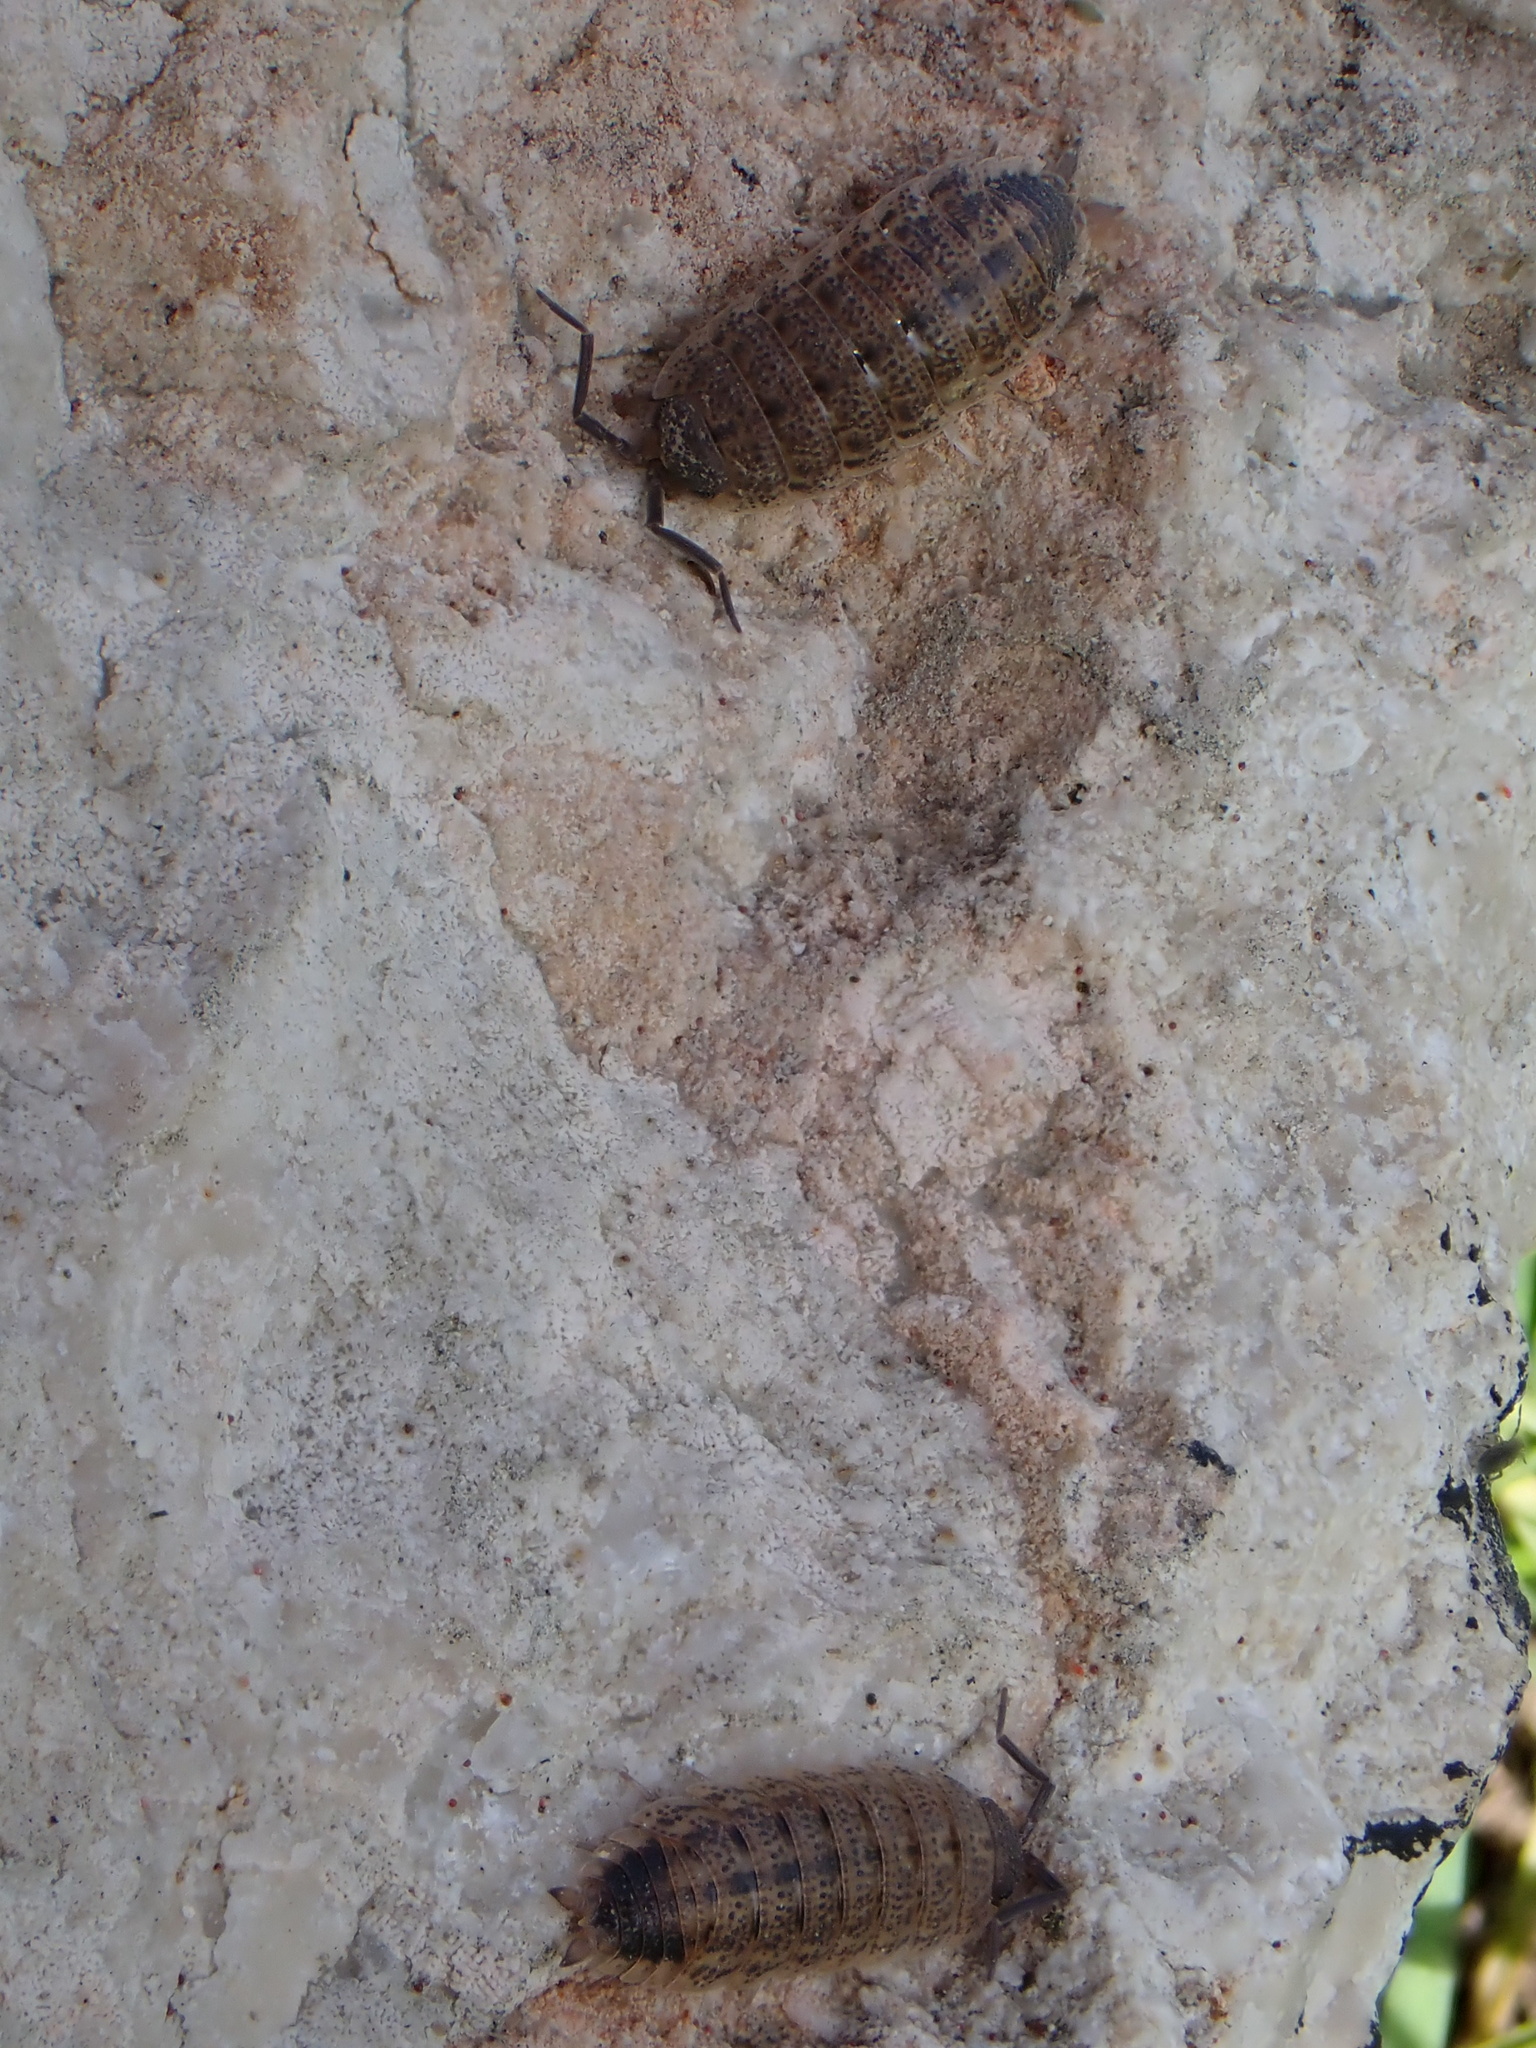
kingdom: Animalia
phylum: Arthropoda
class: Malacostraca
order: Isopoda
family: Porcellionidae
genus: Porcellio
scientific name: Porcellio evansi
